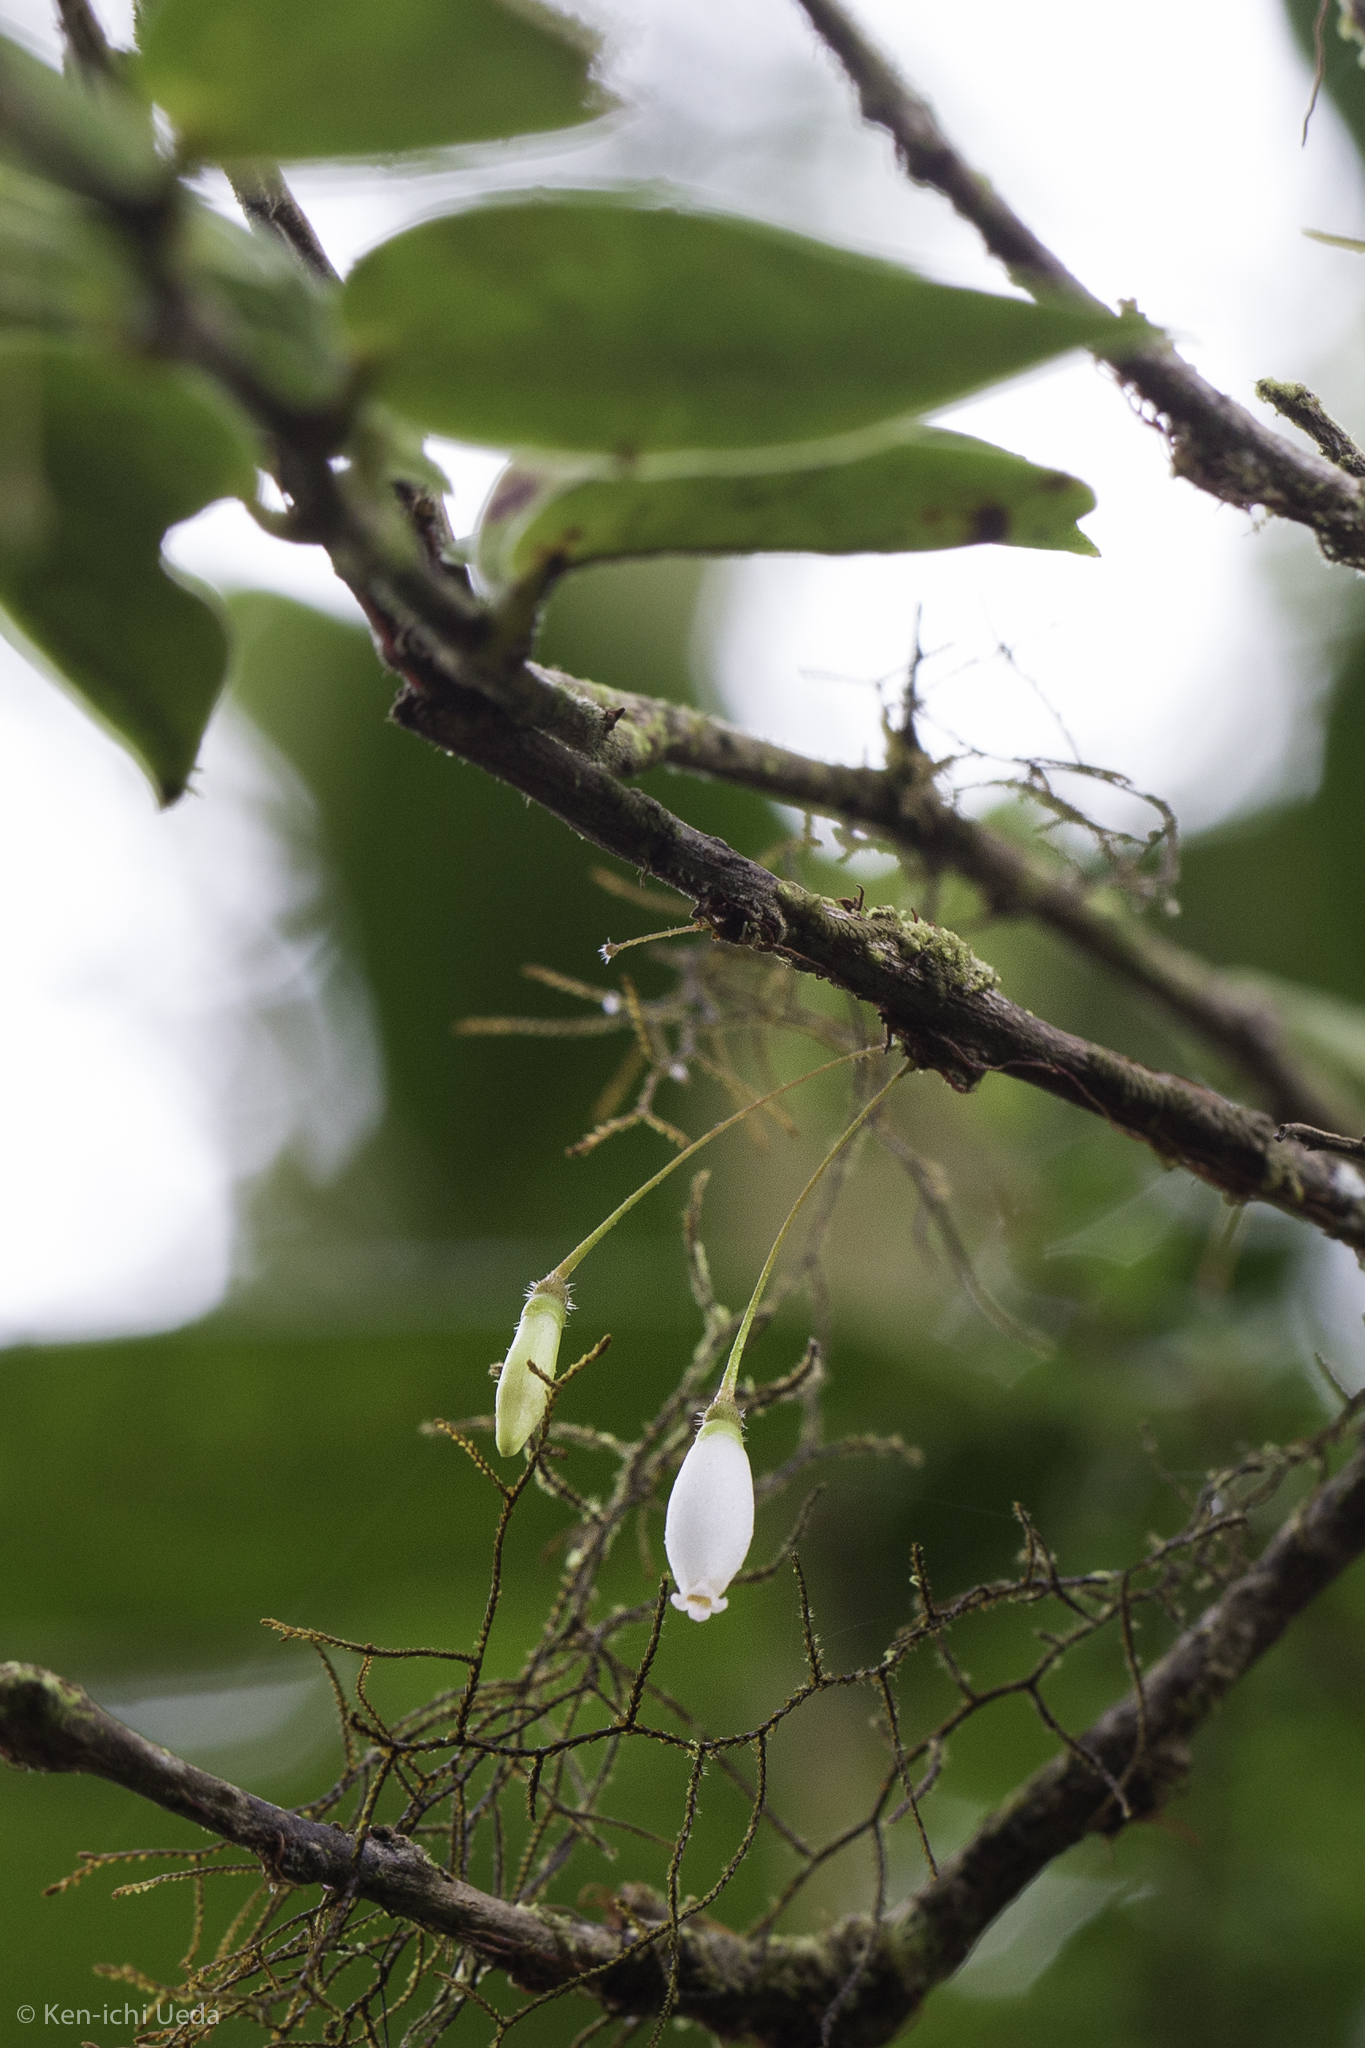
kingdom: Plantae
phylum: Tracheophyta
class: Magnoliopsida
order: Ericales
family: Ericaceae
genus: Sphyrospermum
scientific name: Sphyrospermum buxifolium
